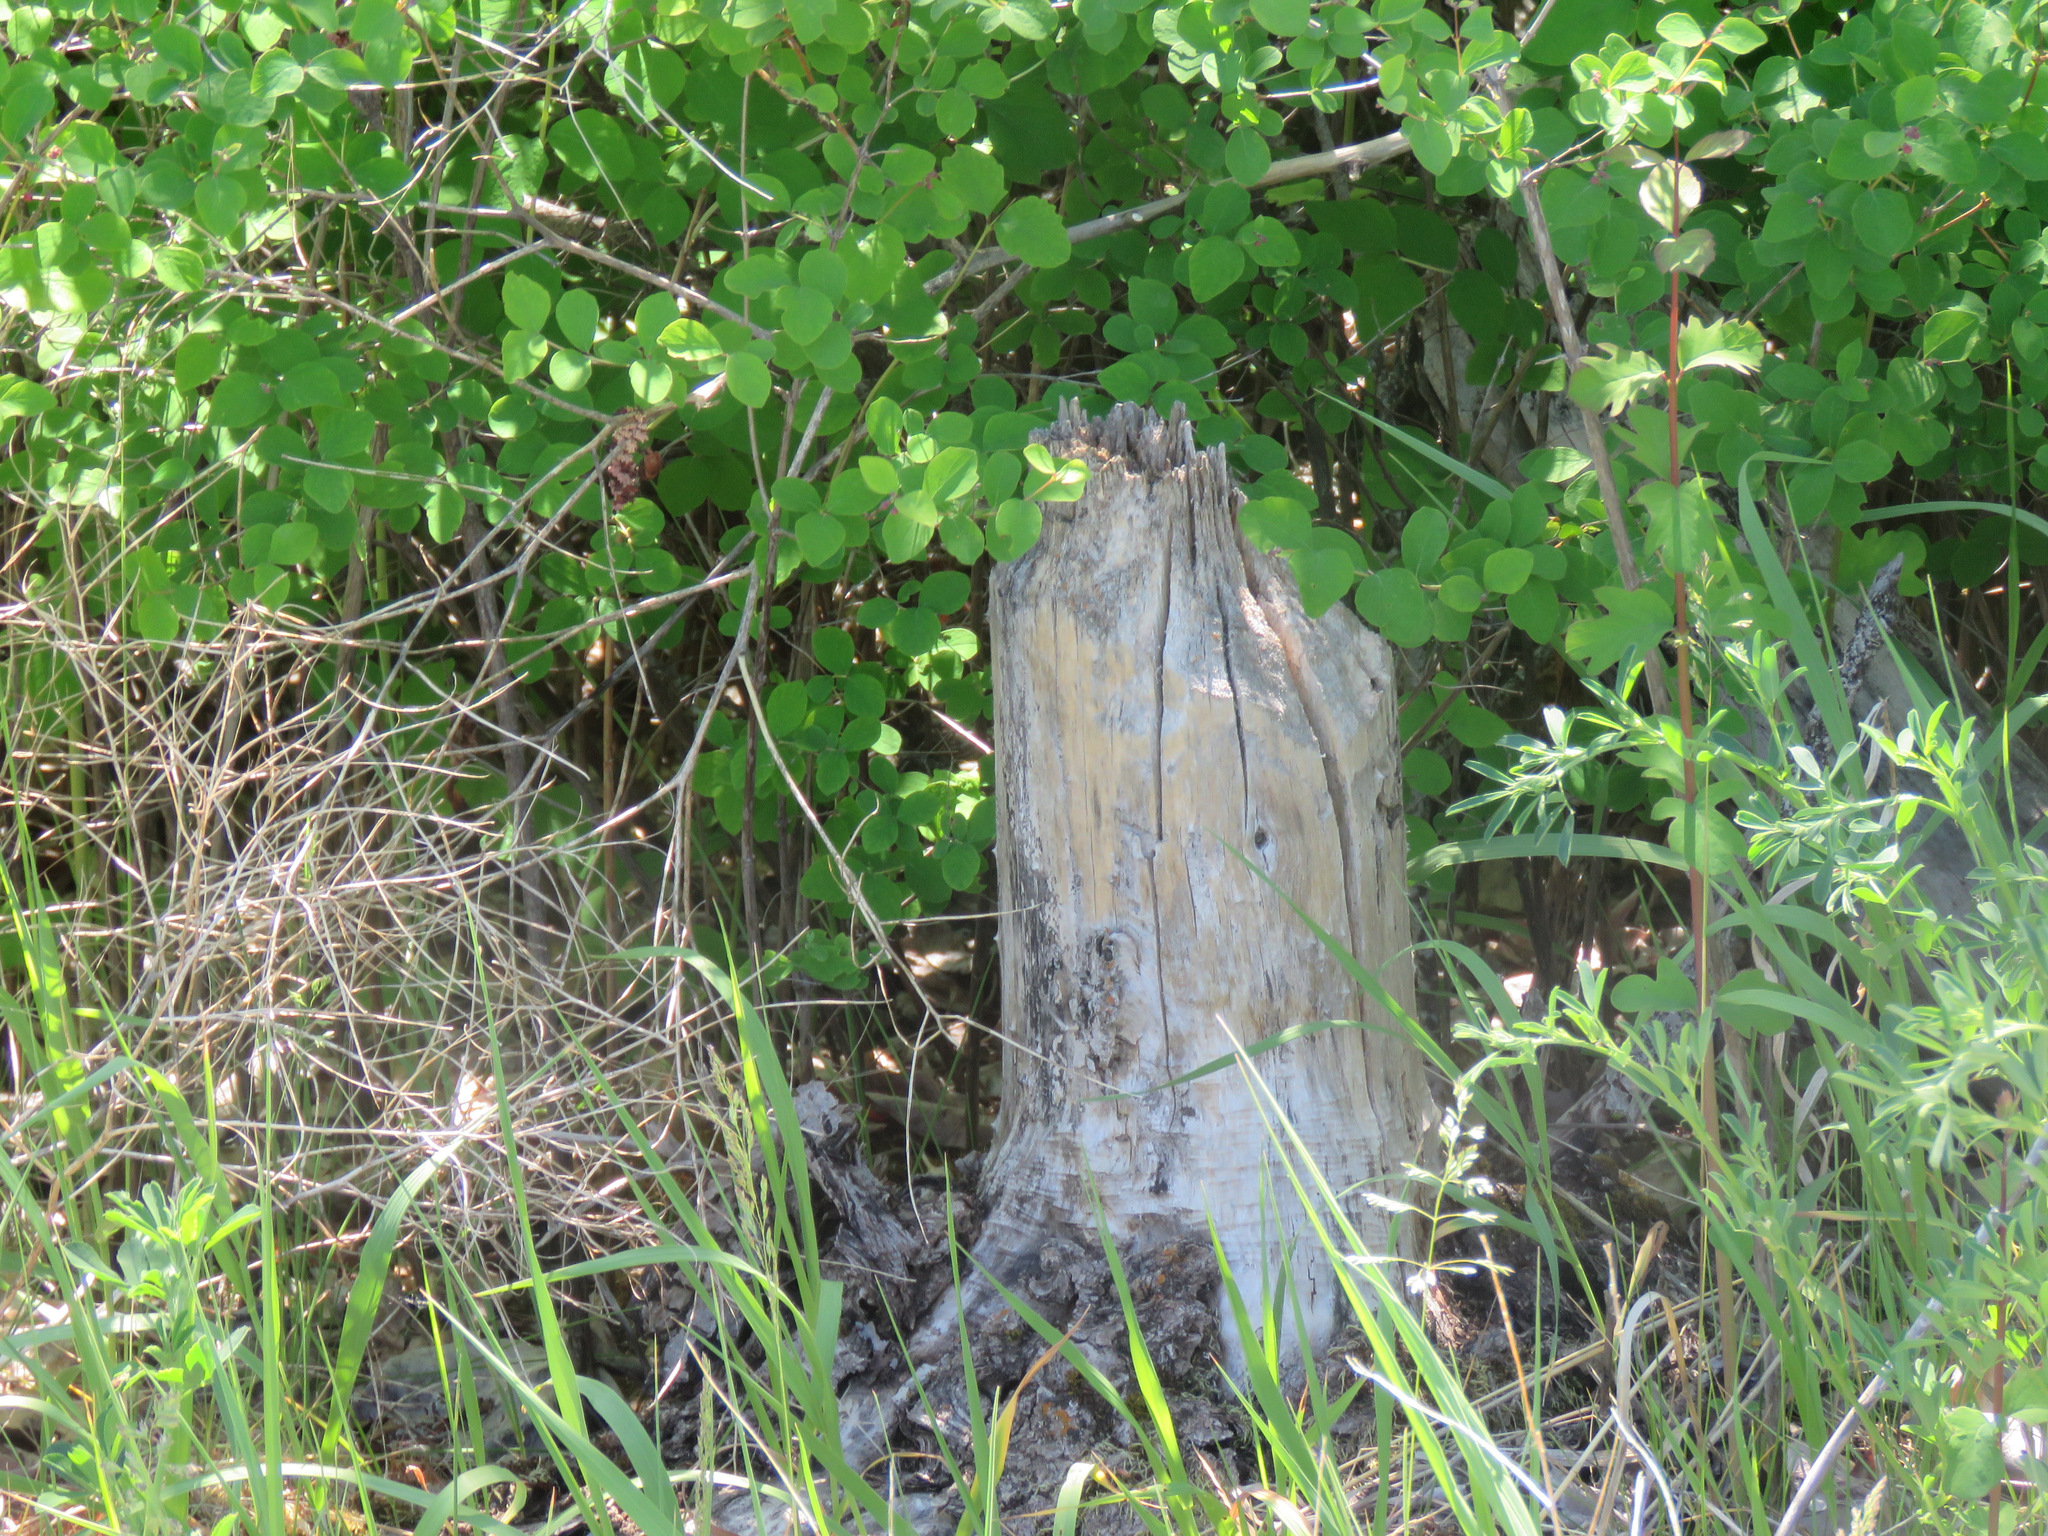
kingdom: Animalia
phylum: Chordata
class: Mammalia
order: Rodentia
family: Castoridae
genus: Castor
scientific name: Castor canadensis
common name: American beaver
